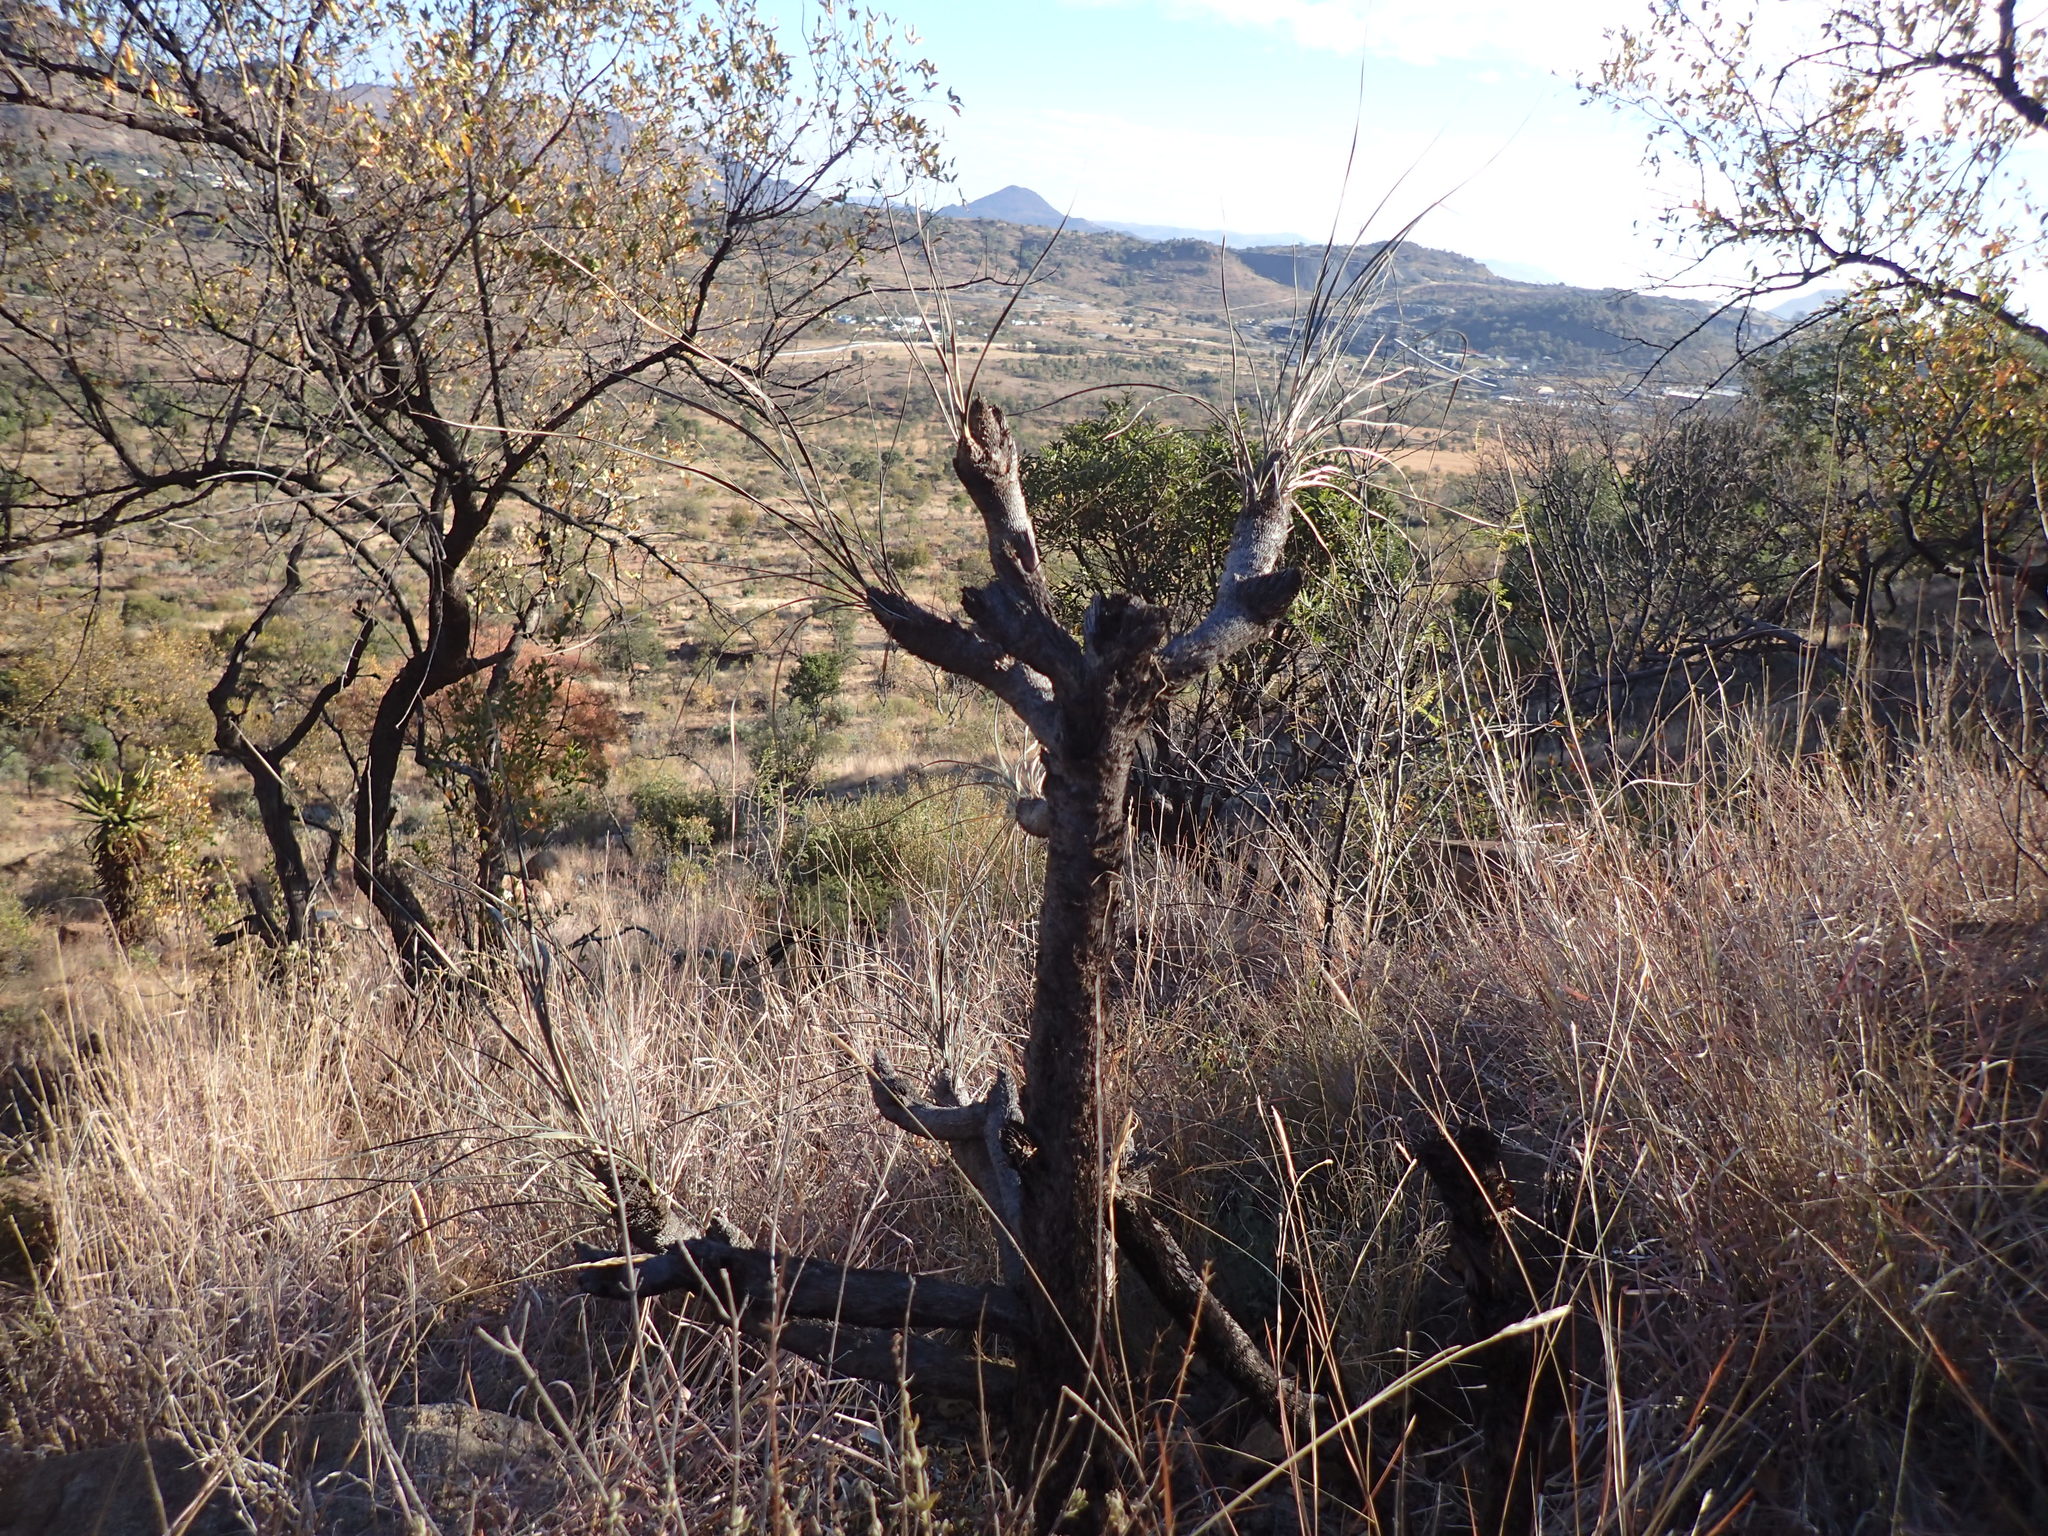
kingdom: Plantae
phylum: Tracheophyta
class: Liliopsida
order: Pandanales
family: Velloziaceae
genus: Xerophyta
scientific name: Xerophyta retinervis
